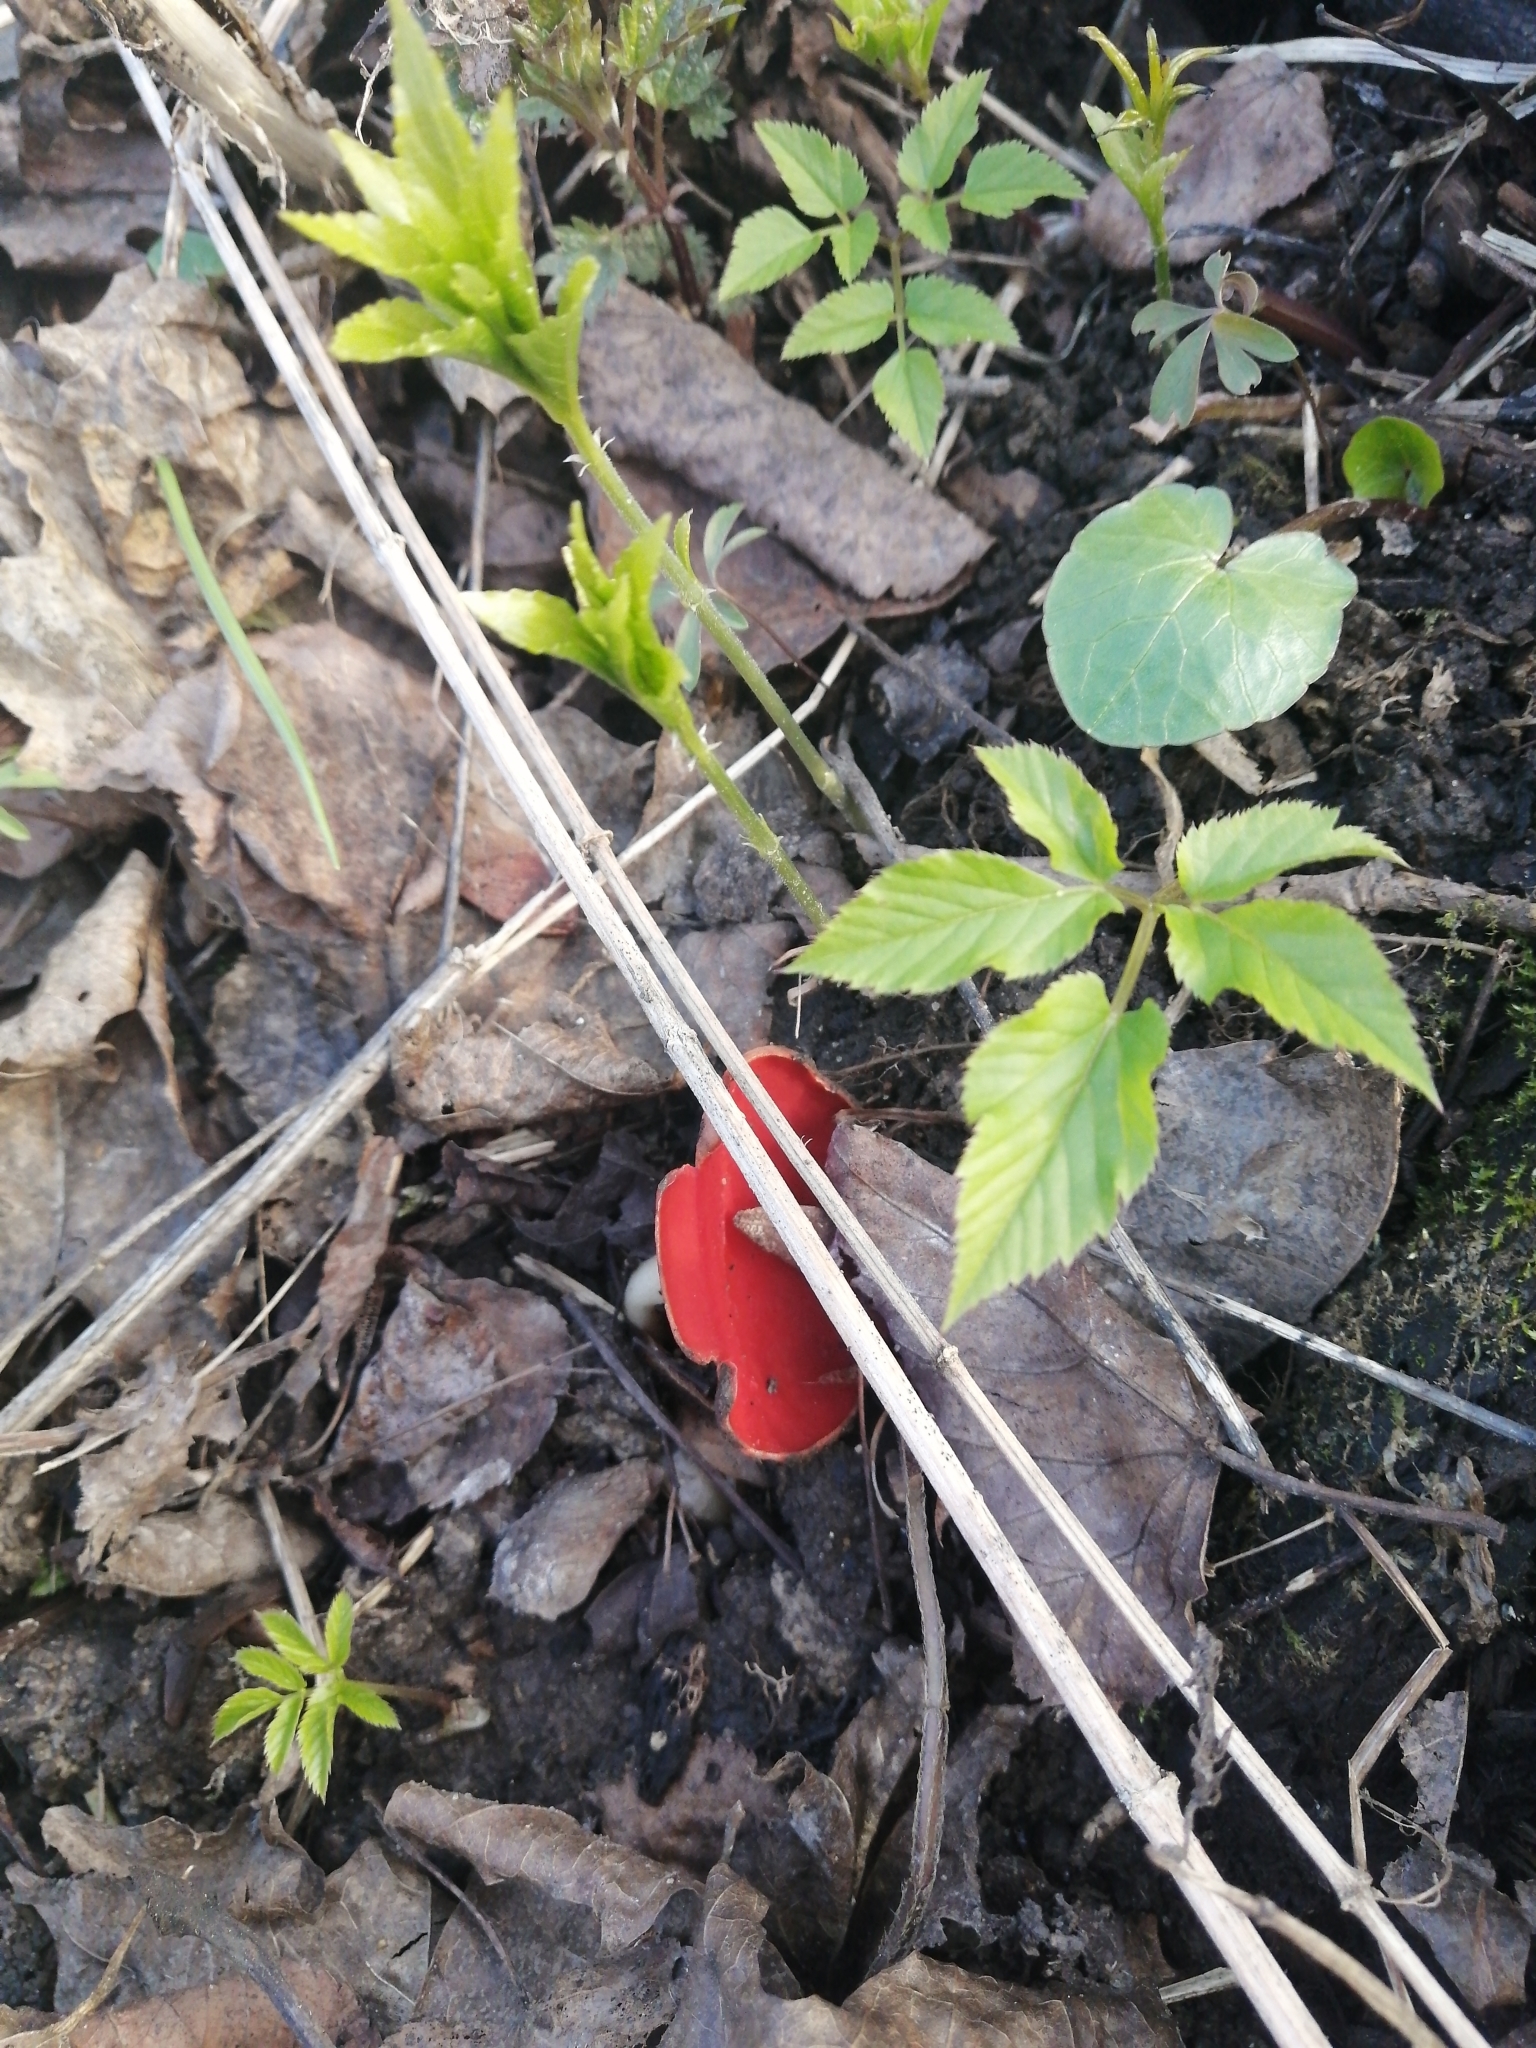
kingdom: Fungi
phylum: Ascomycota
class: Pezizomycetes
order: Pezizales
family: Sarcoscyphaceae
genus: Sarcoscypha
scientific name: Sarcoscypha austriaca
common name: Scarlet elfcup
